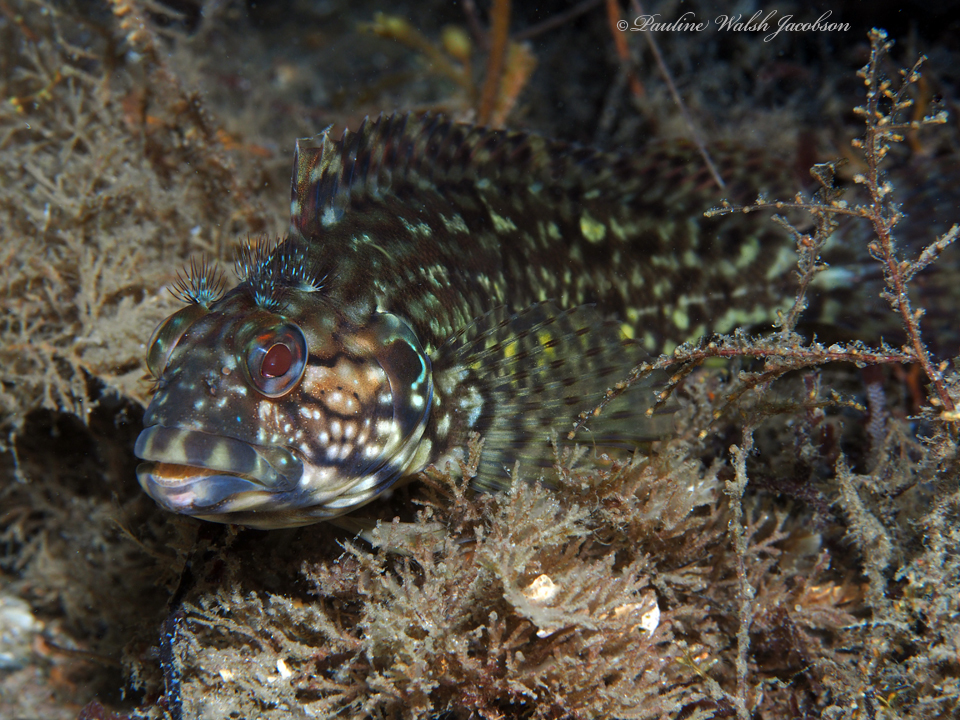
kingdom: Animalia
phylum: Chordata
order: Perciformes
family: Labrisomidae
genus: Labrisomus
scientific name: Labrisomus conditus
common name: Masquerader hairy blenny
